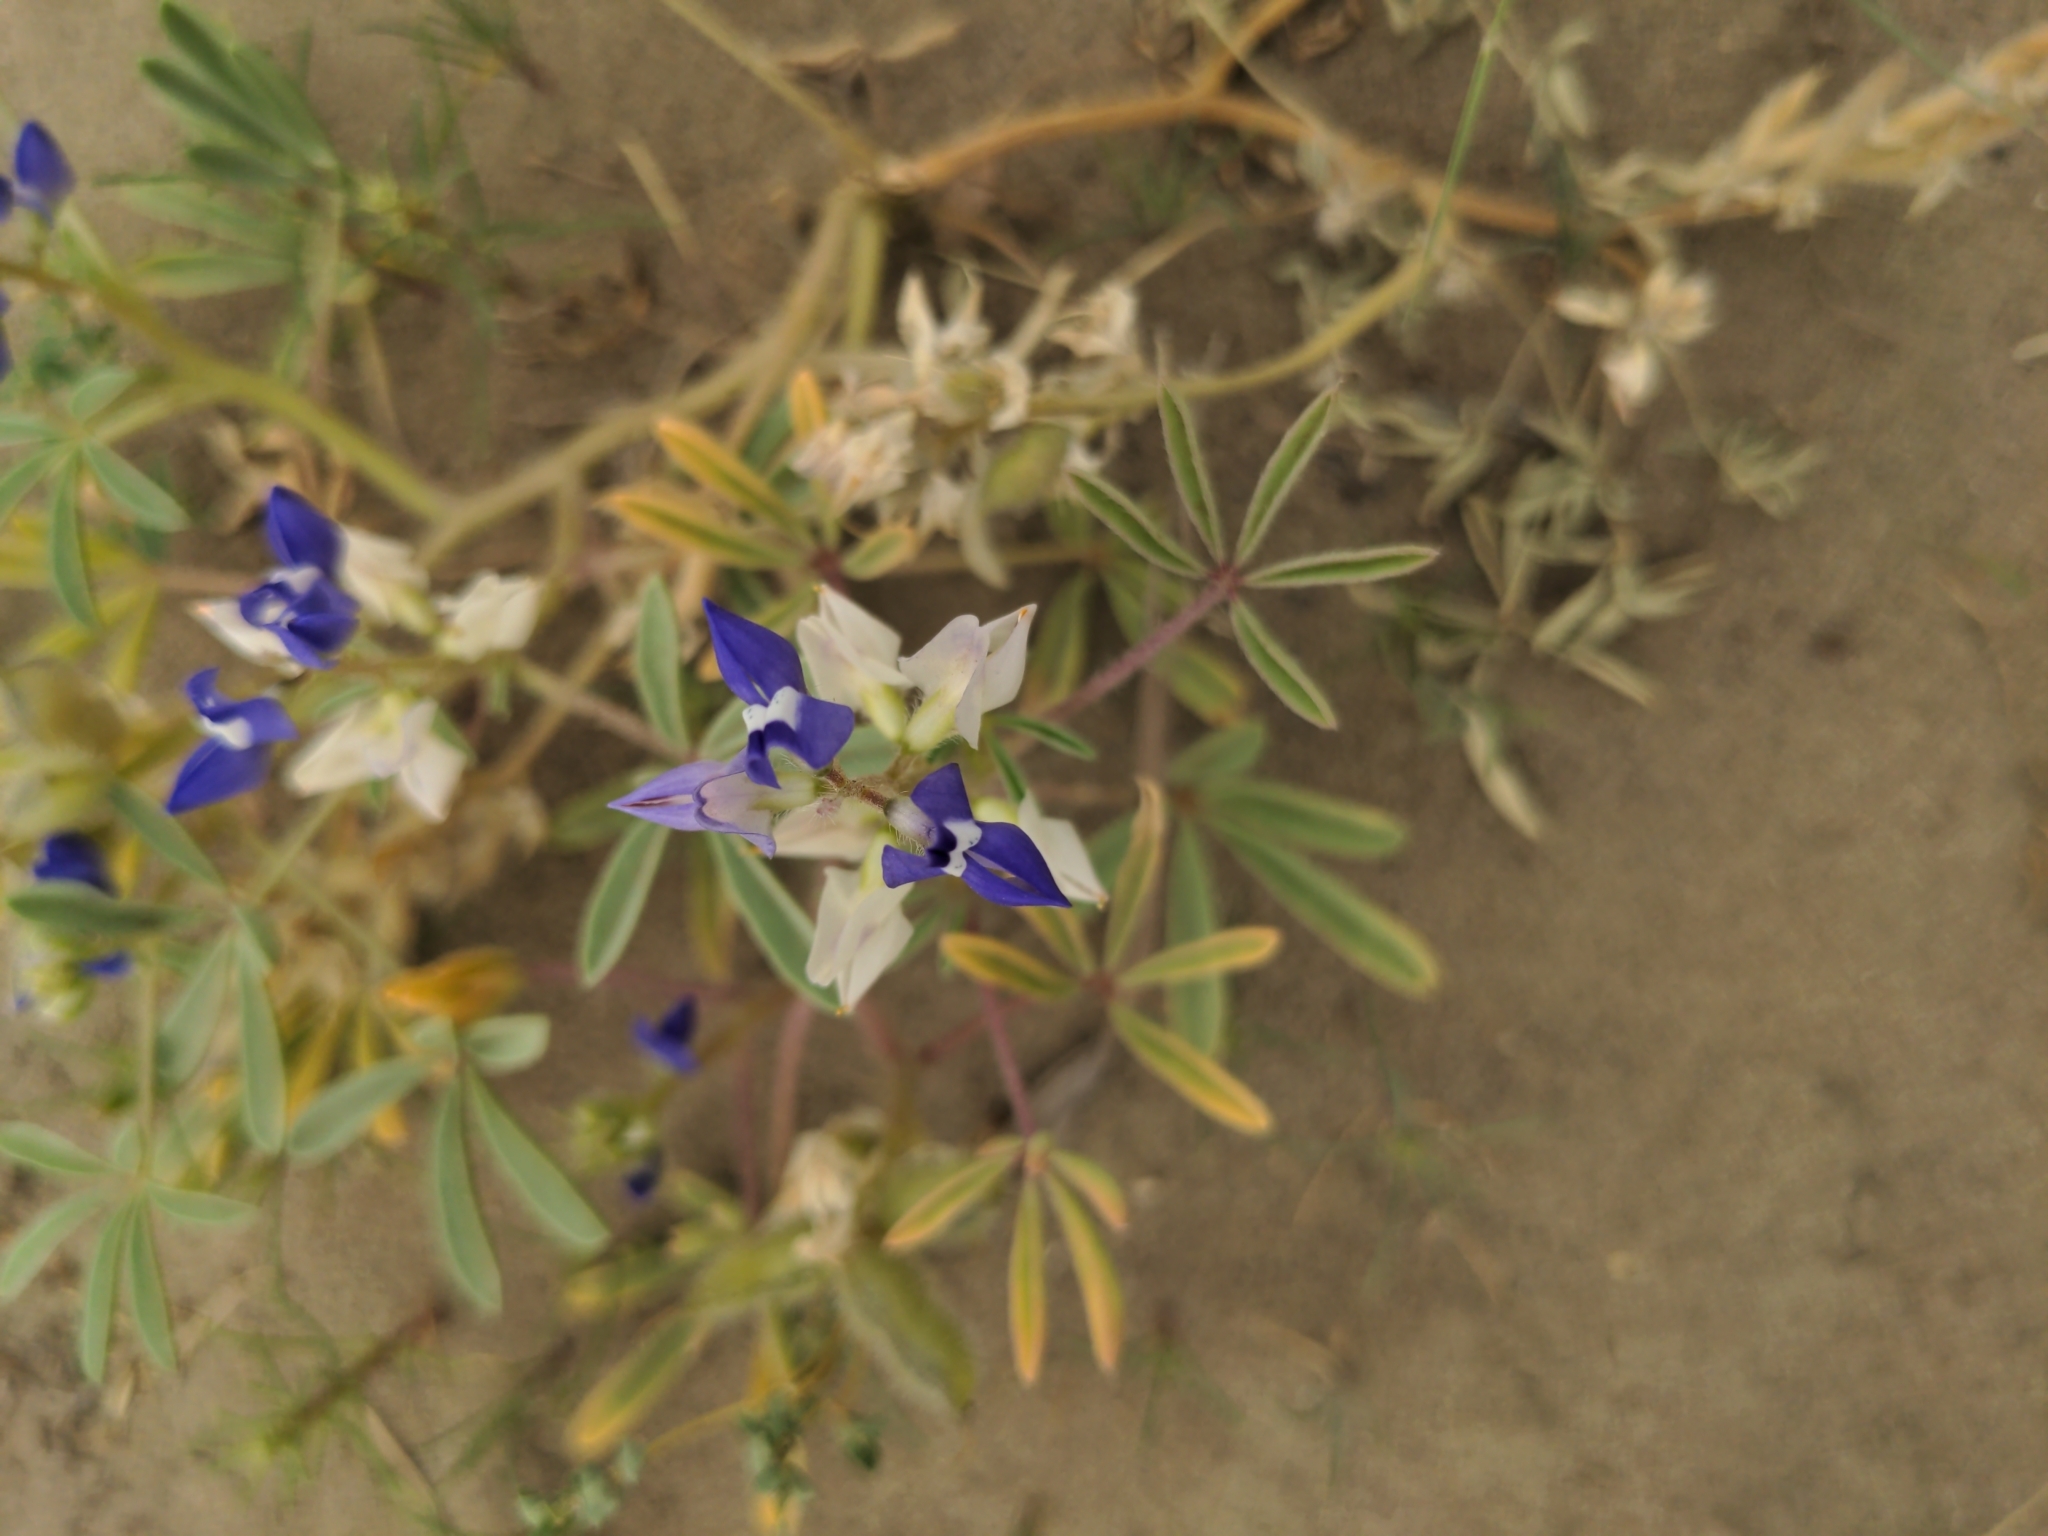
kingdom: Plantae
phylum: Tracheophyta
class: Magnoliopsida
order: Fabales
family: Fabaceae
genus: Lupinus
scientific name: Lupinus pusillus
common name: Low lupine
